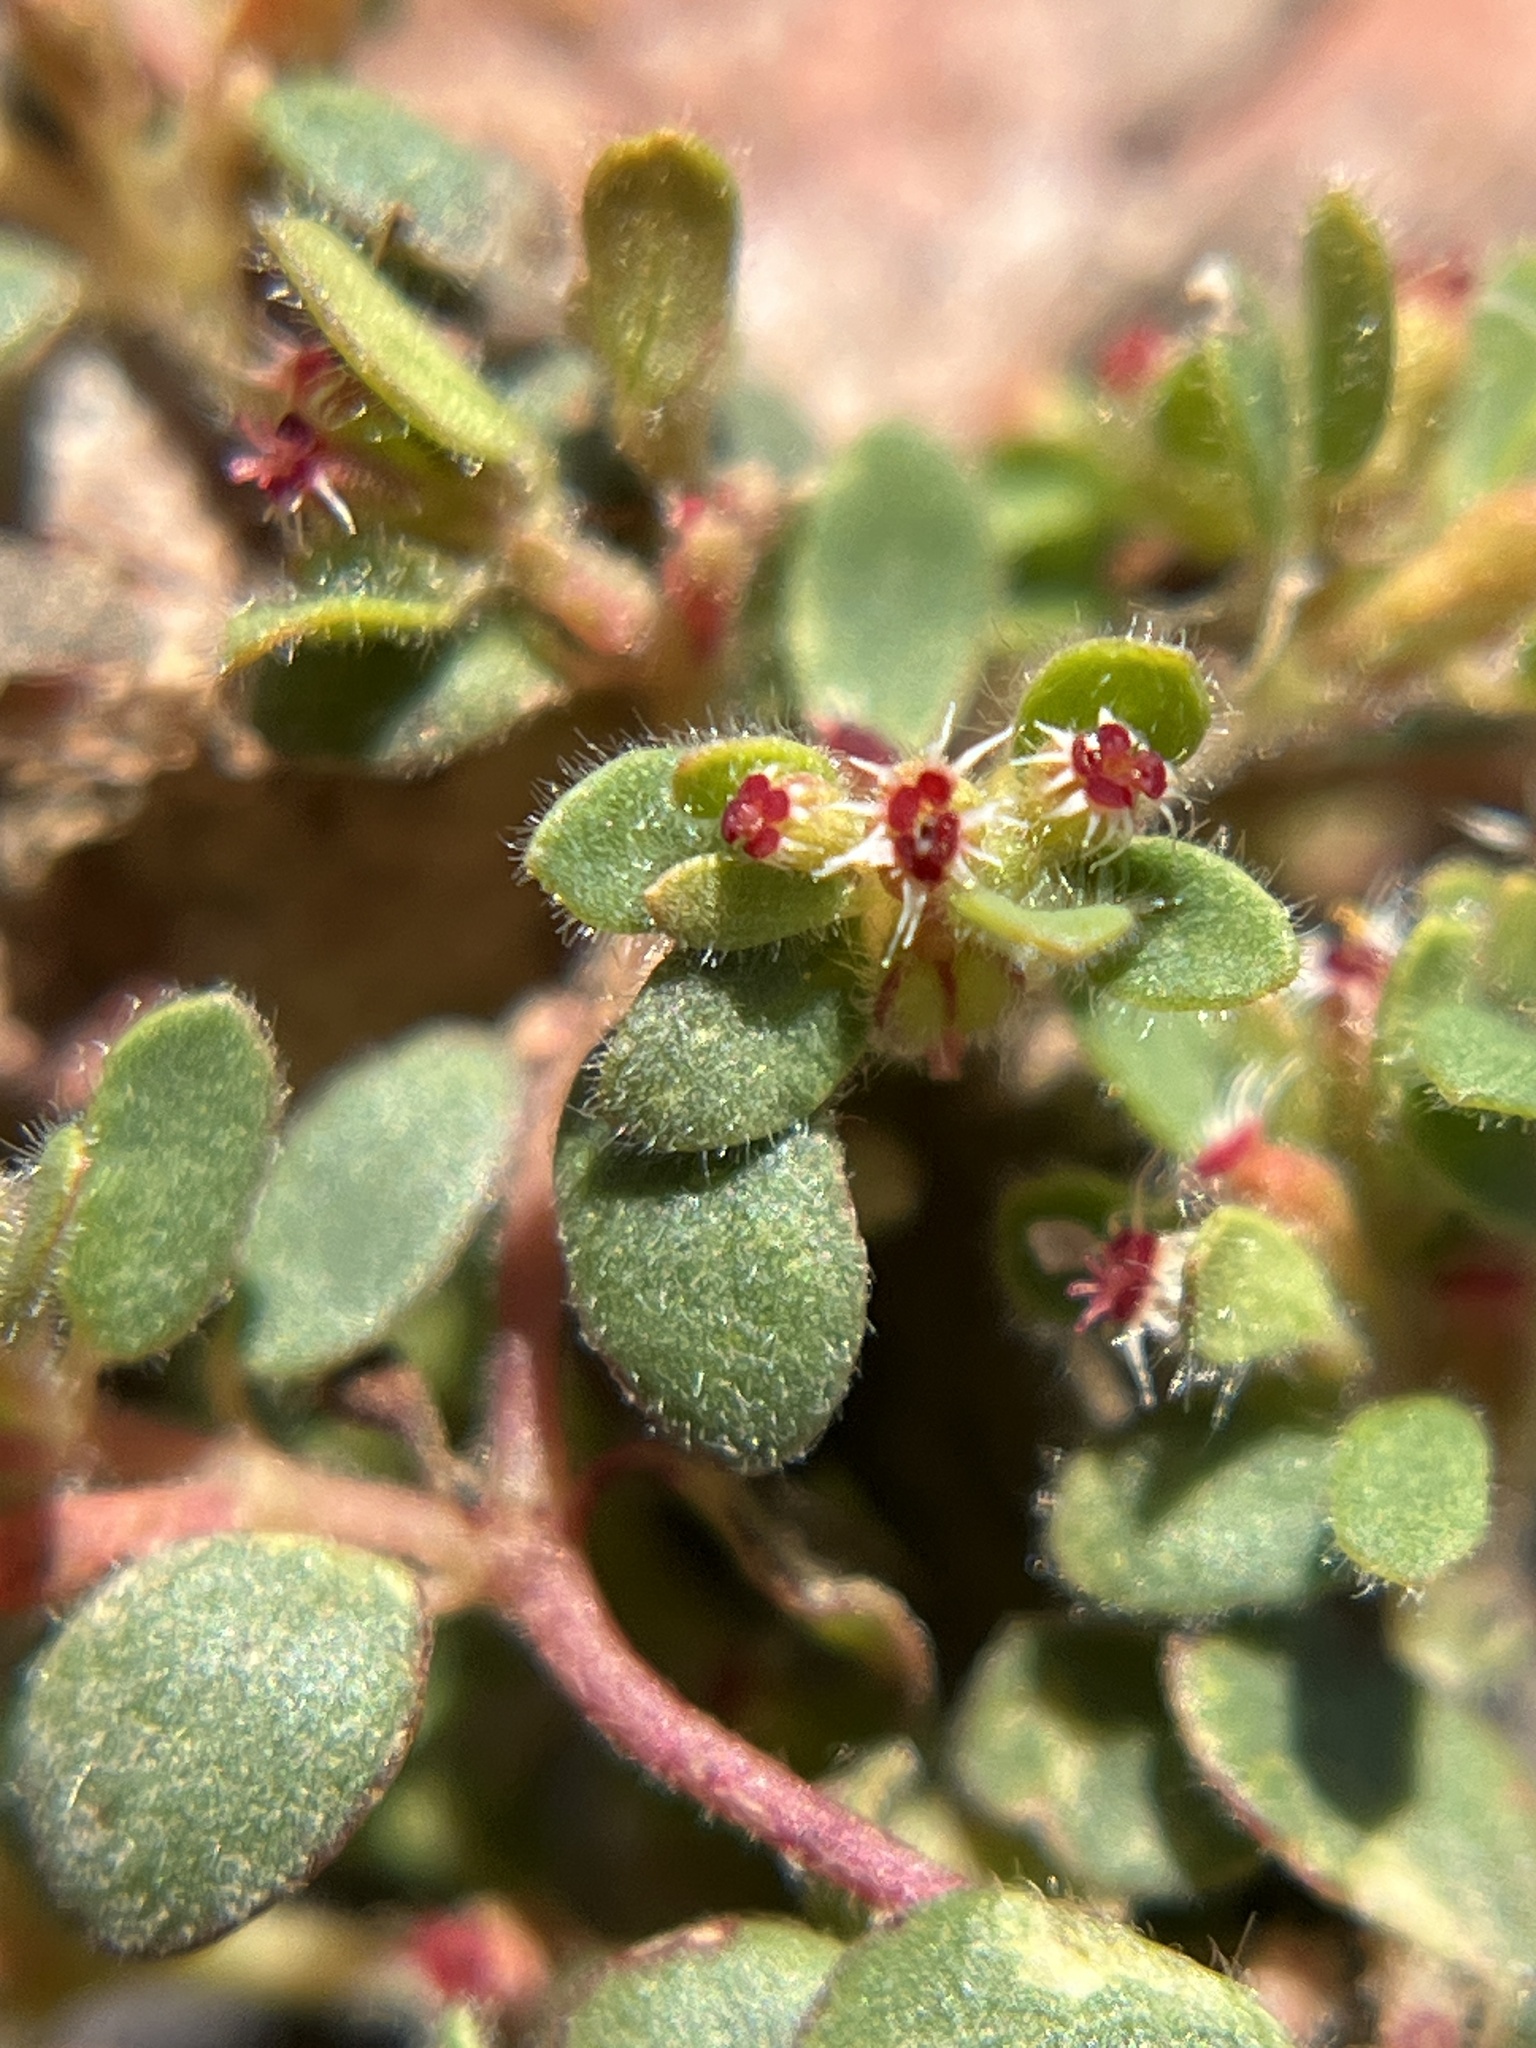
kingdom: Plantae
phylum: Tracheophyta
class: Magnoliopsida
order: Malpighiales
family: Euphorbiaceae
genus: Euphorbia
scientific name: Euphorbia setiloba
